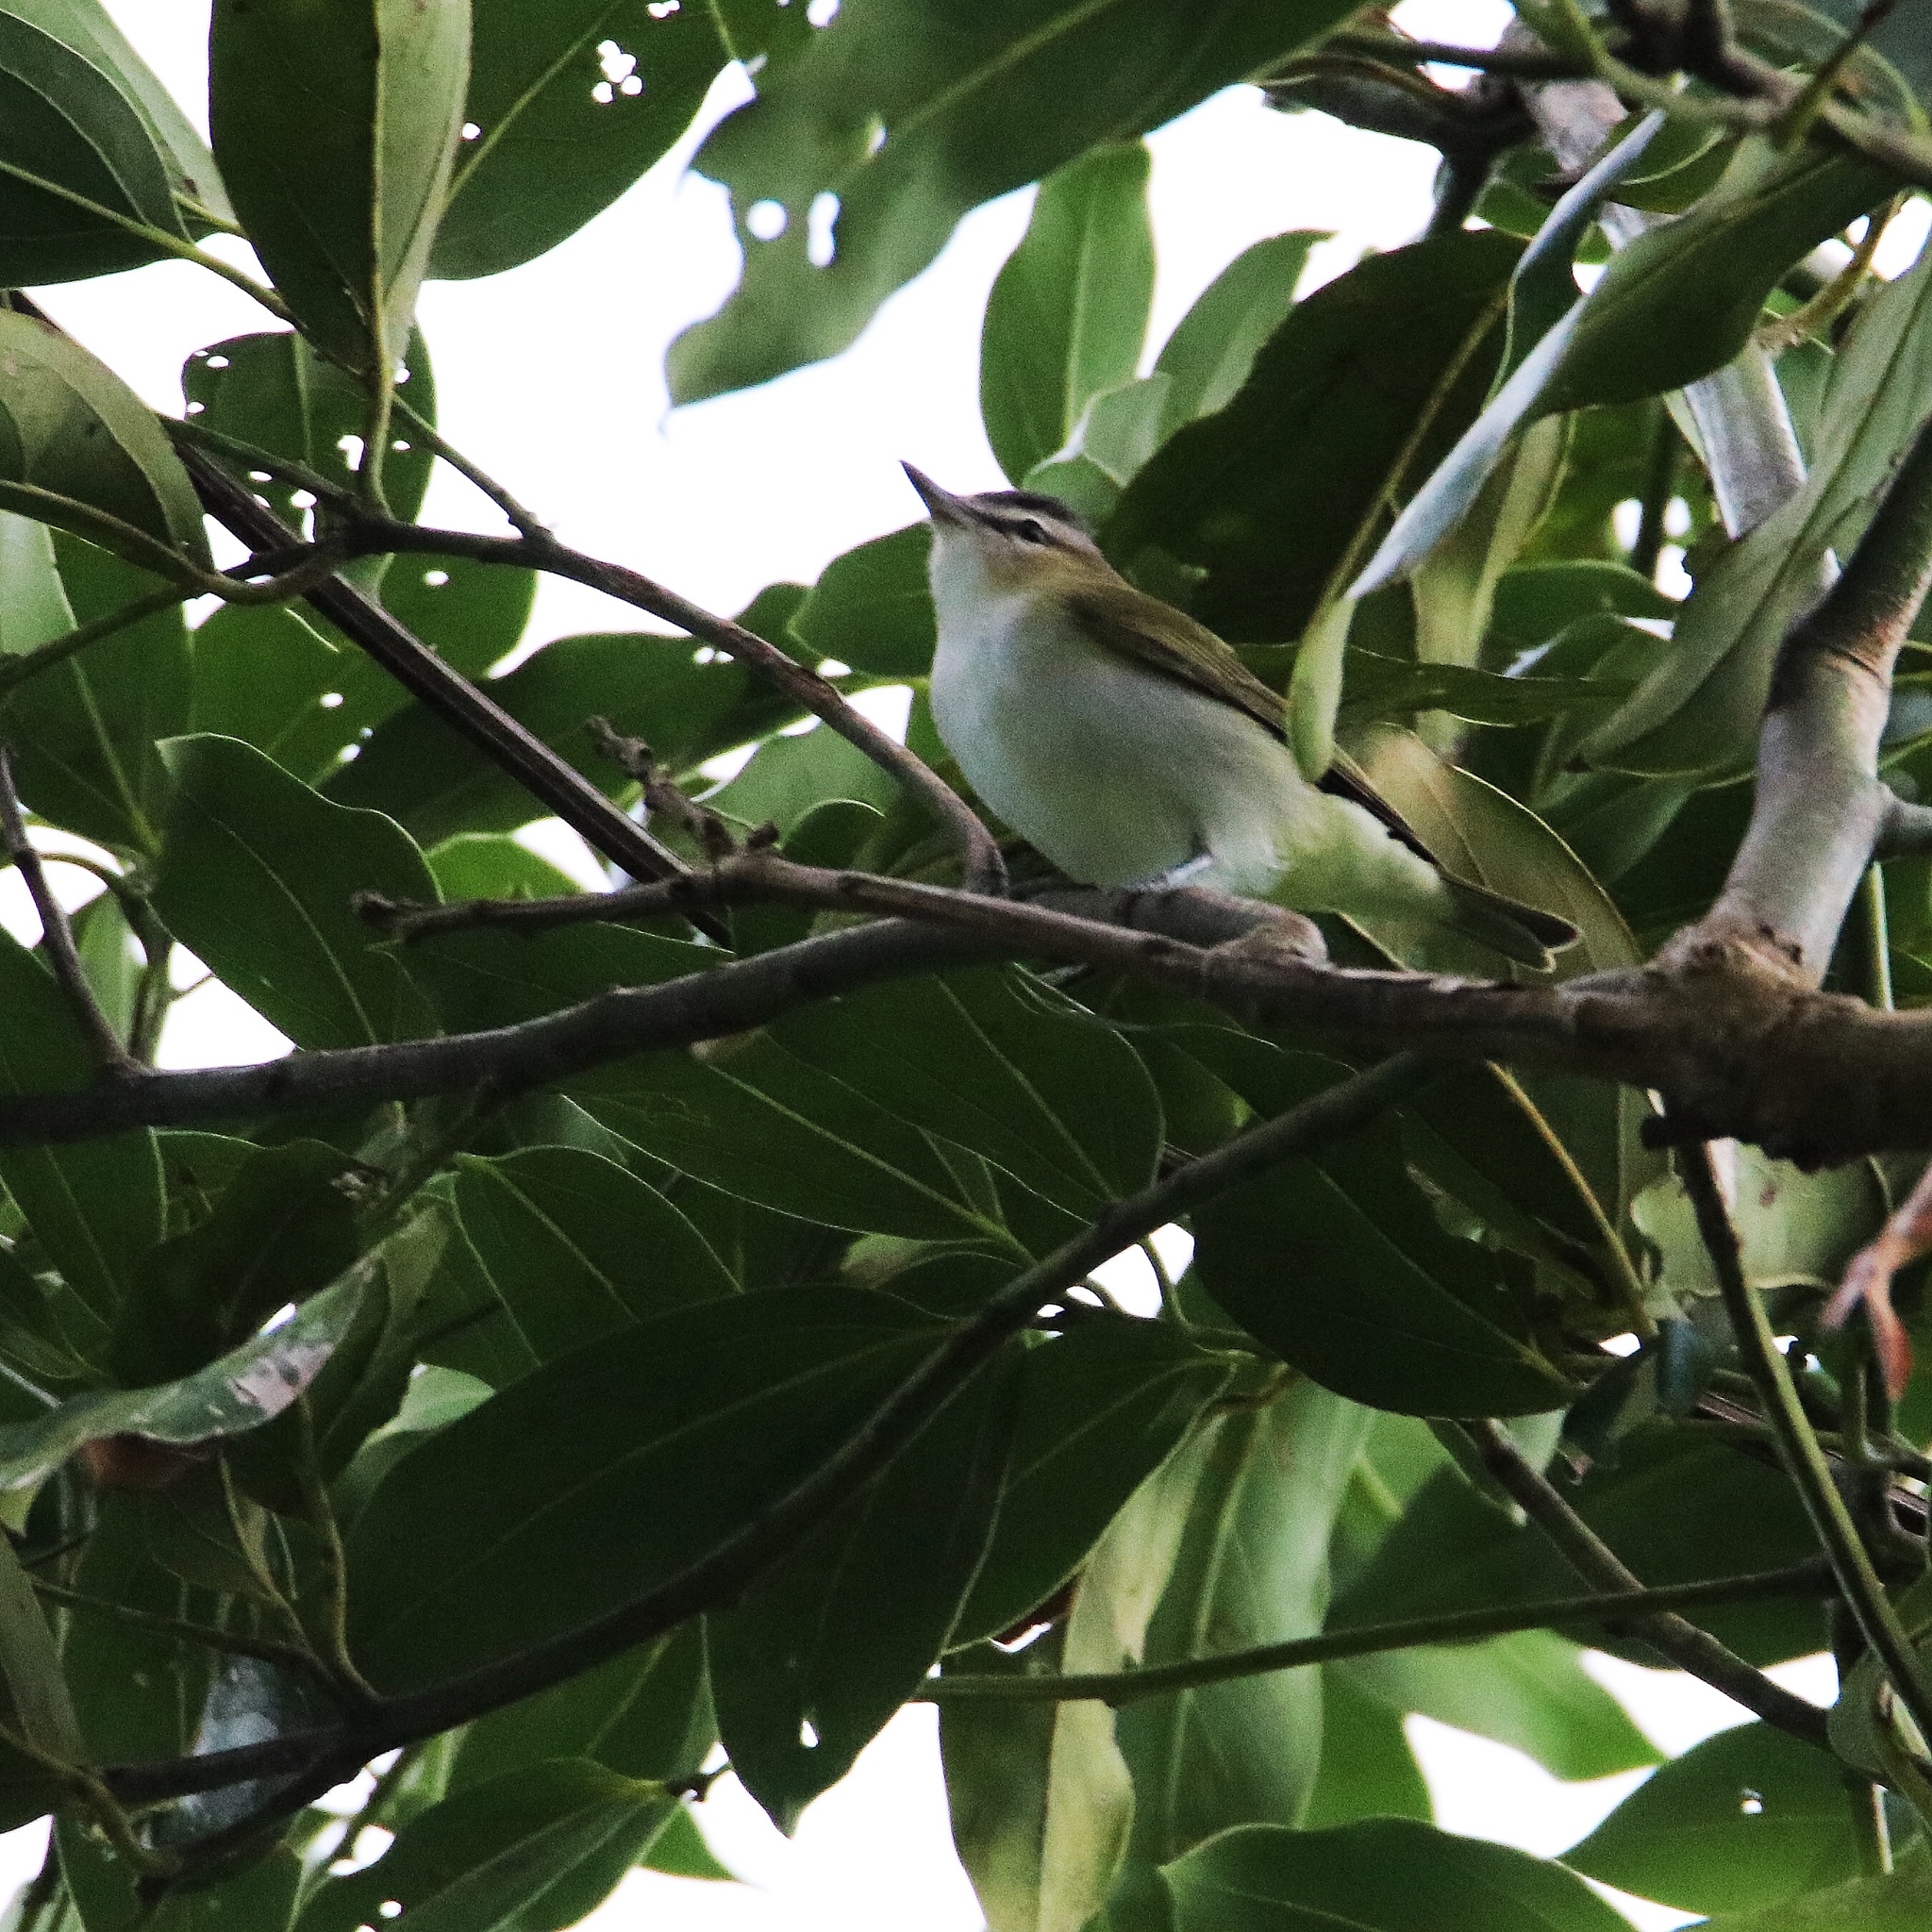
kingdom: Animalia
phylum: Chordata
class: Aves
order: Passeriformes
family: Vireonidae
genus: Vireo
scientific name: Vireo olivaceus
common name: Red-eyed vireo
